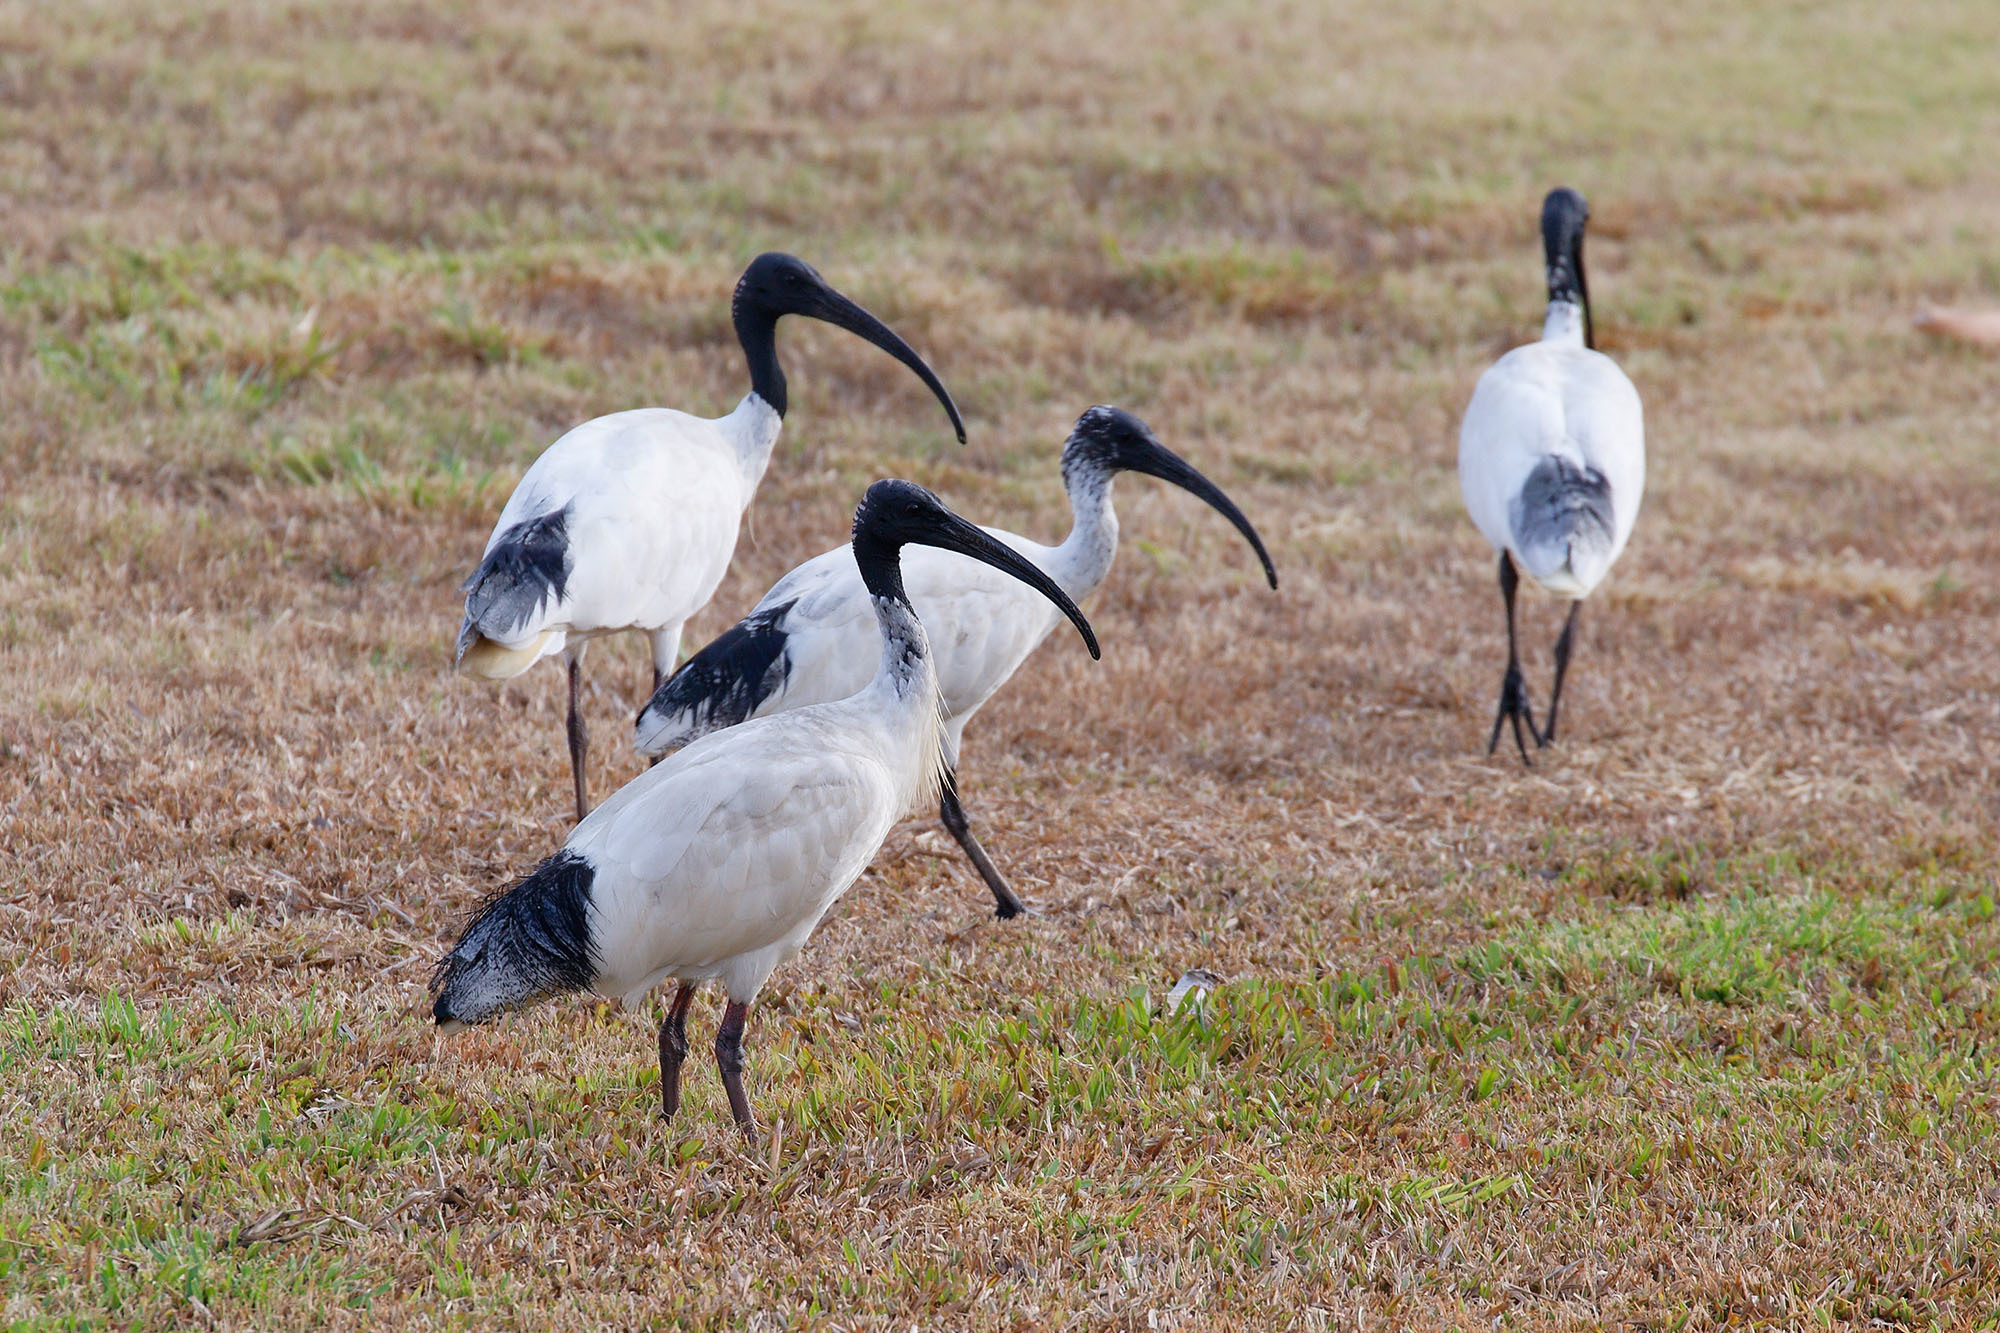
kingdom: Animalia
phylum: Chordata
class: Aves
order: Pelecaniformes
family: Threskiornithidae
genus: Threskiornis
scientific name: Threskiornis molucca
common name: Australian white ibis
